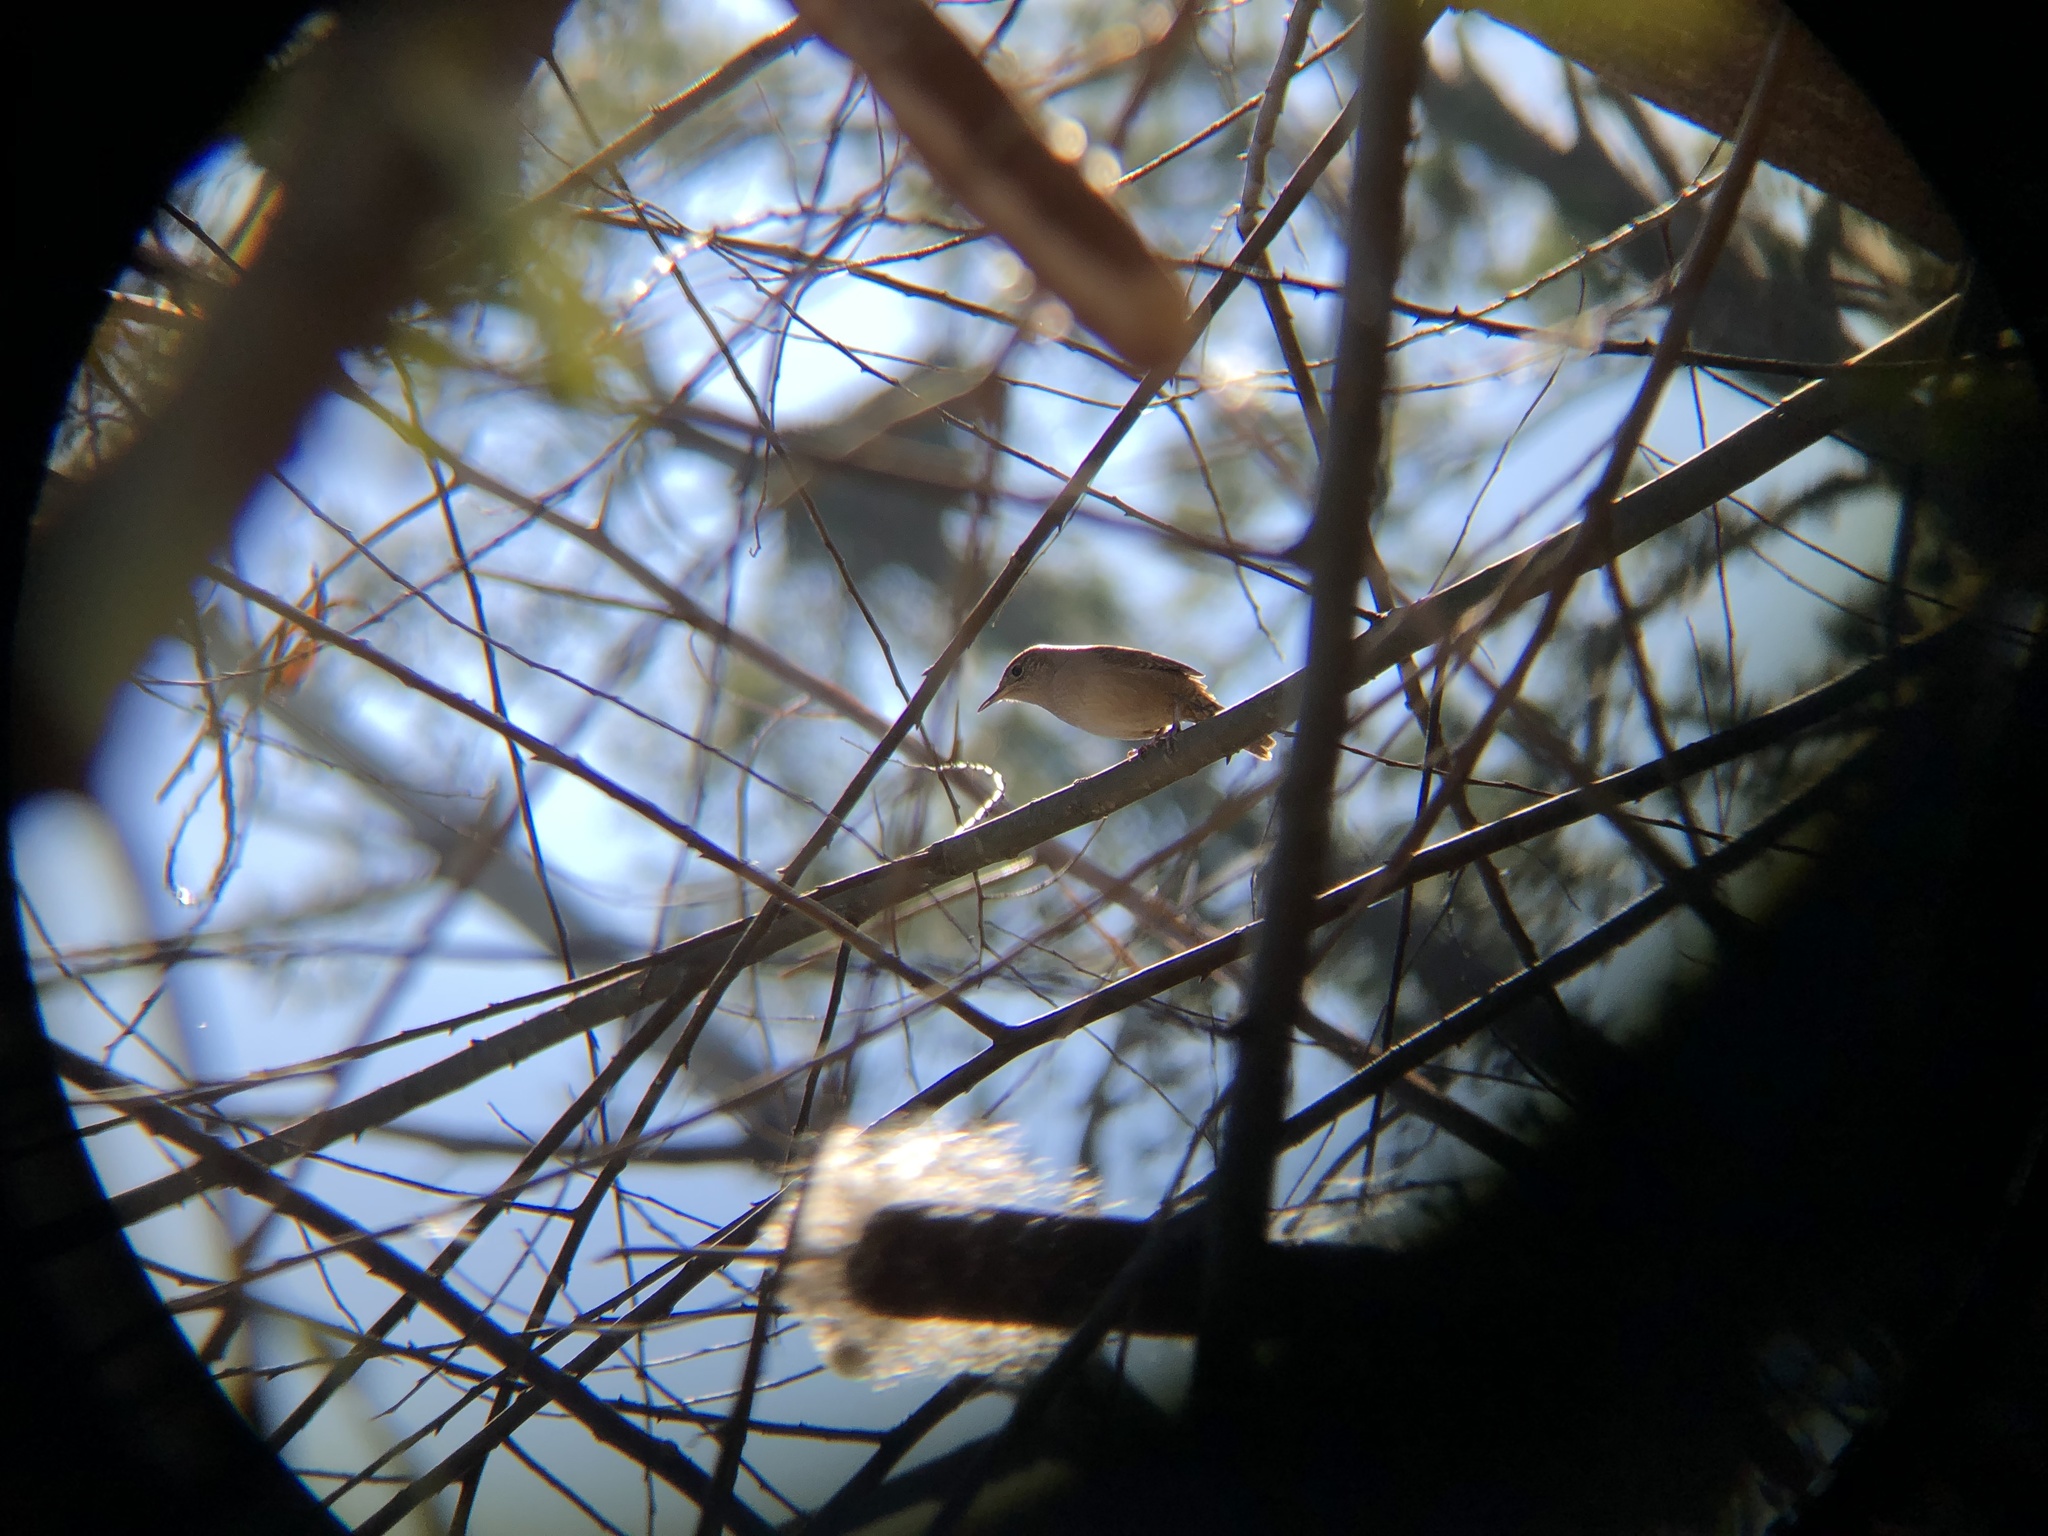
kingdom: Animalia
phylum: Chordata
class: Aves
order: Passeriformes
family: Troglodytidae
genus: Troglodytes
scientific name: Troglodytes aedon
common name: House wren
